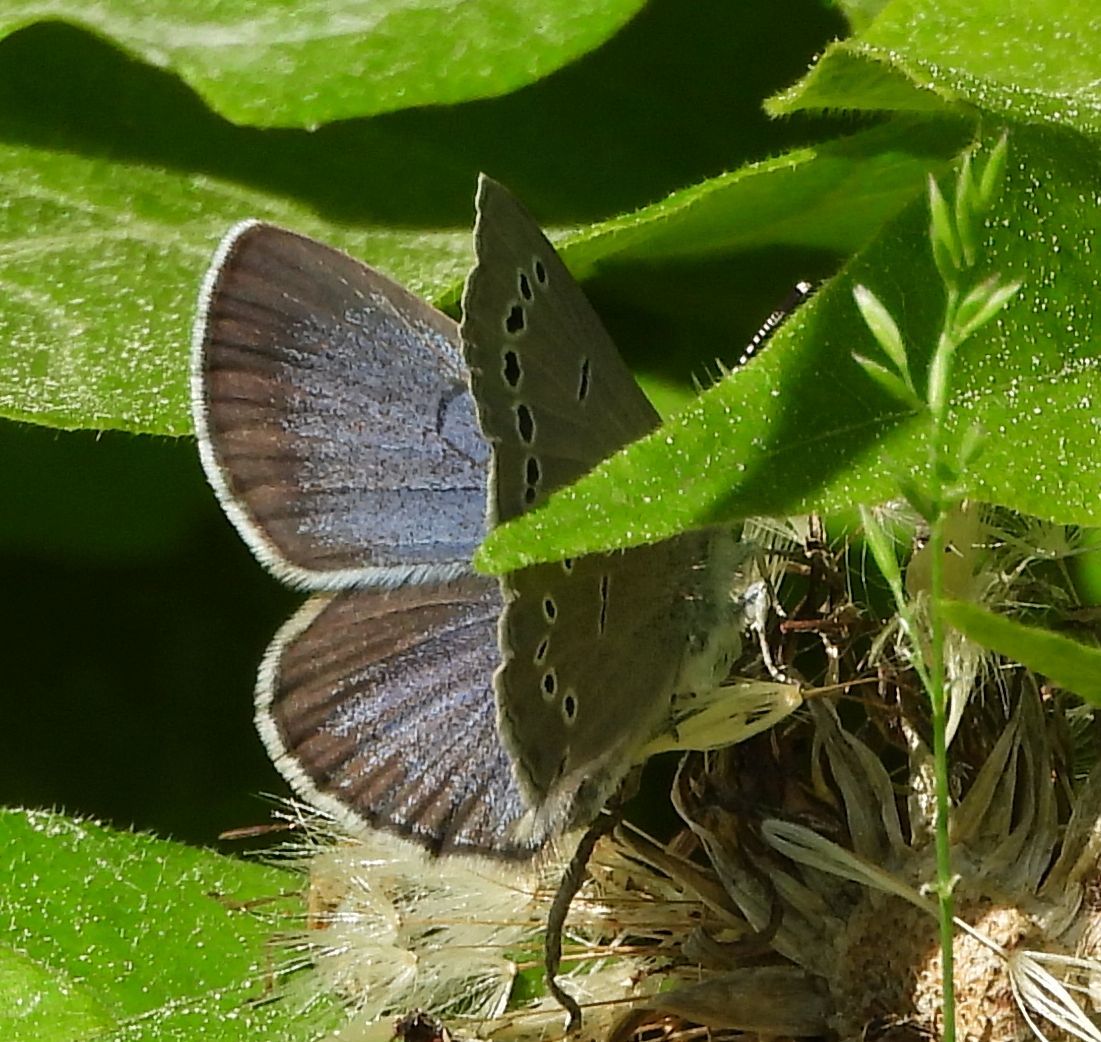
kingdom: Animalia
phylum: Arthropoda
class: Insecta
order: Lepidoptera
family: Lycaenidae
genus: Glaucopsyche
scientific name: Glaucopsyche lygdamus
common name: Silvery blue
